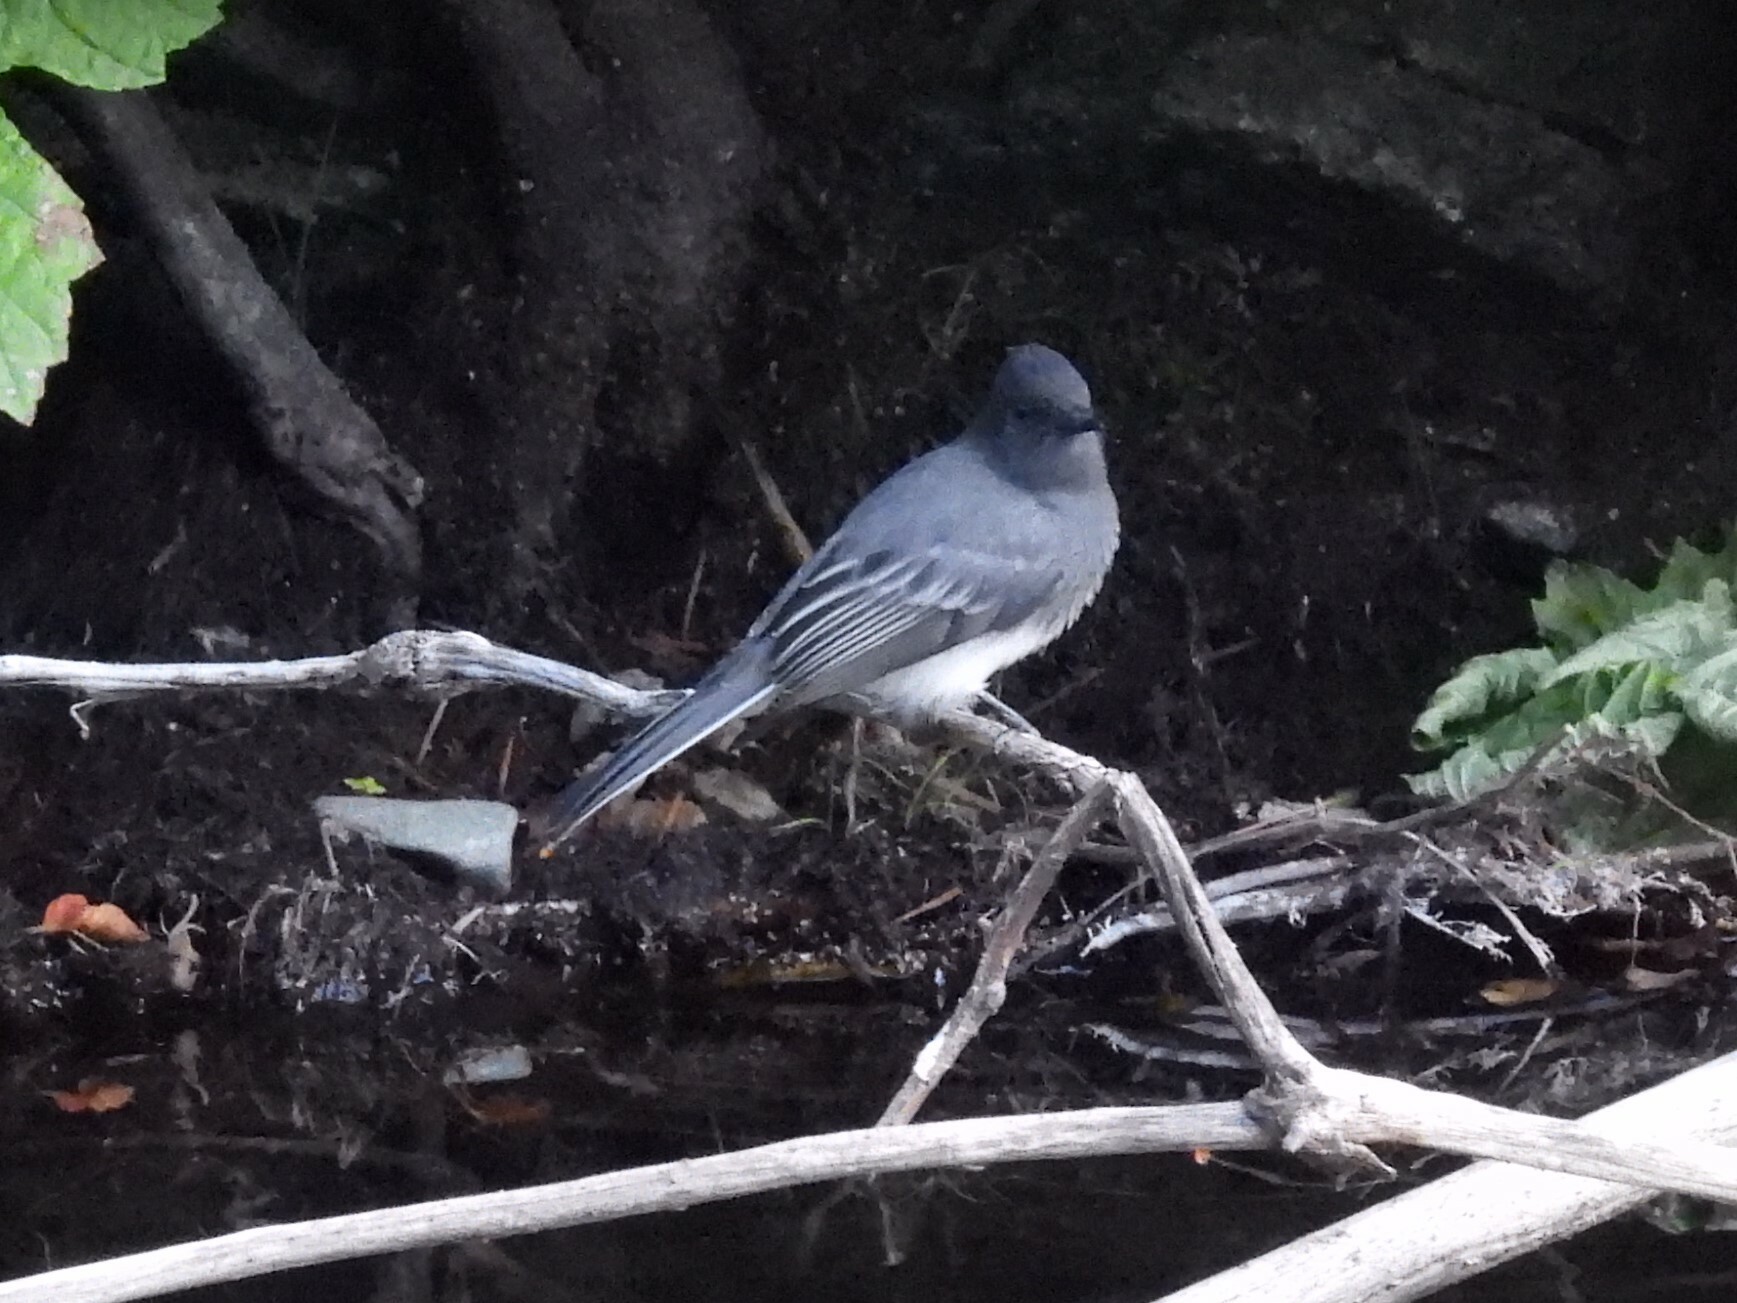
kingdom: Animalia
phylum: Chordata
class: Aves
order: Passeriformes
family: Tyrannidae
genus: Sayornis
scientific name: Sayornis nigricans
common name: Black phoebe
